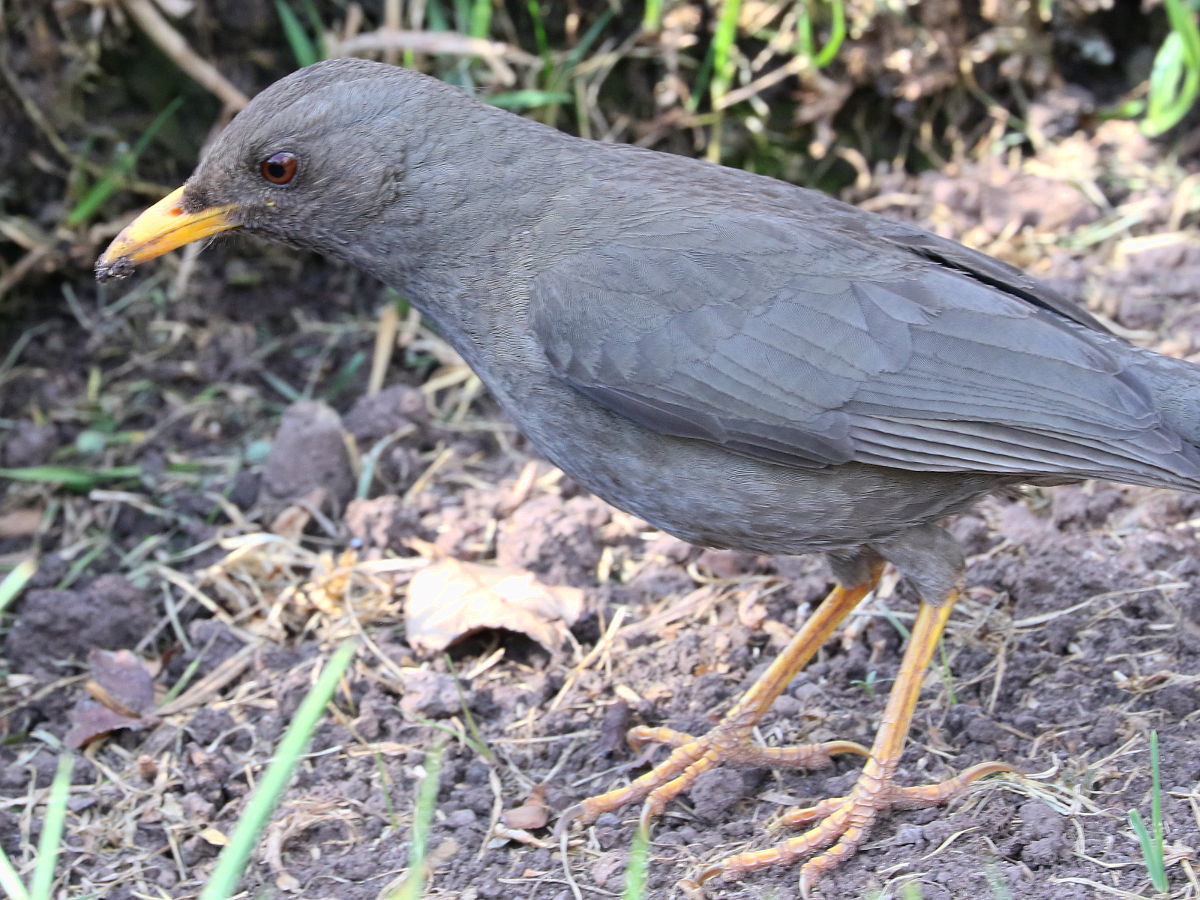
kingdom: Animalia
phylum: Chordata
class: Aves
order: Passeriformes
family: Turdidae
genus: Turdus
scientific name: Turdus chiguanco
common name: Chiguanco thrush
